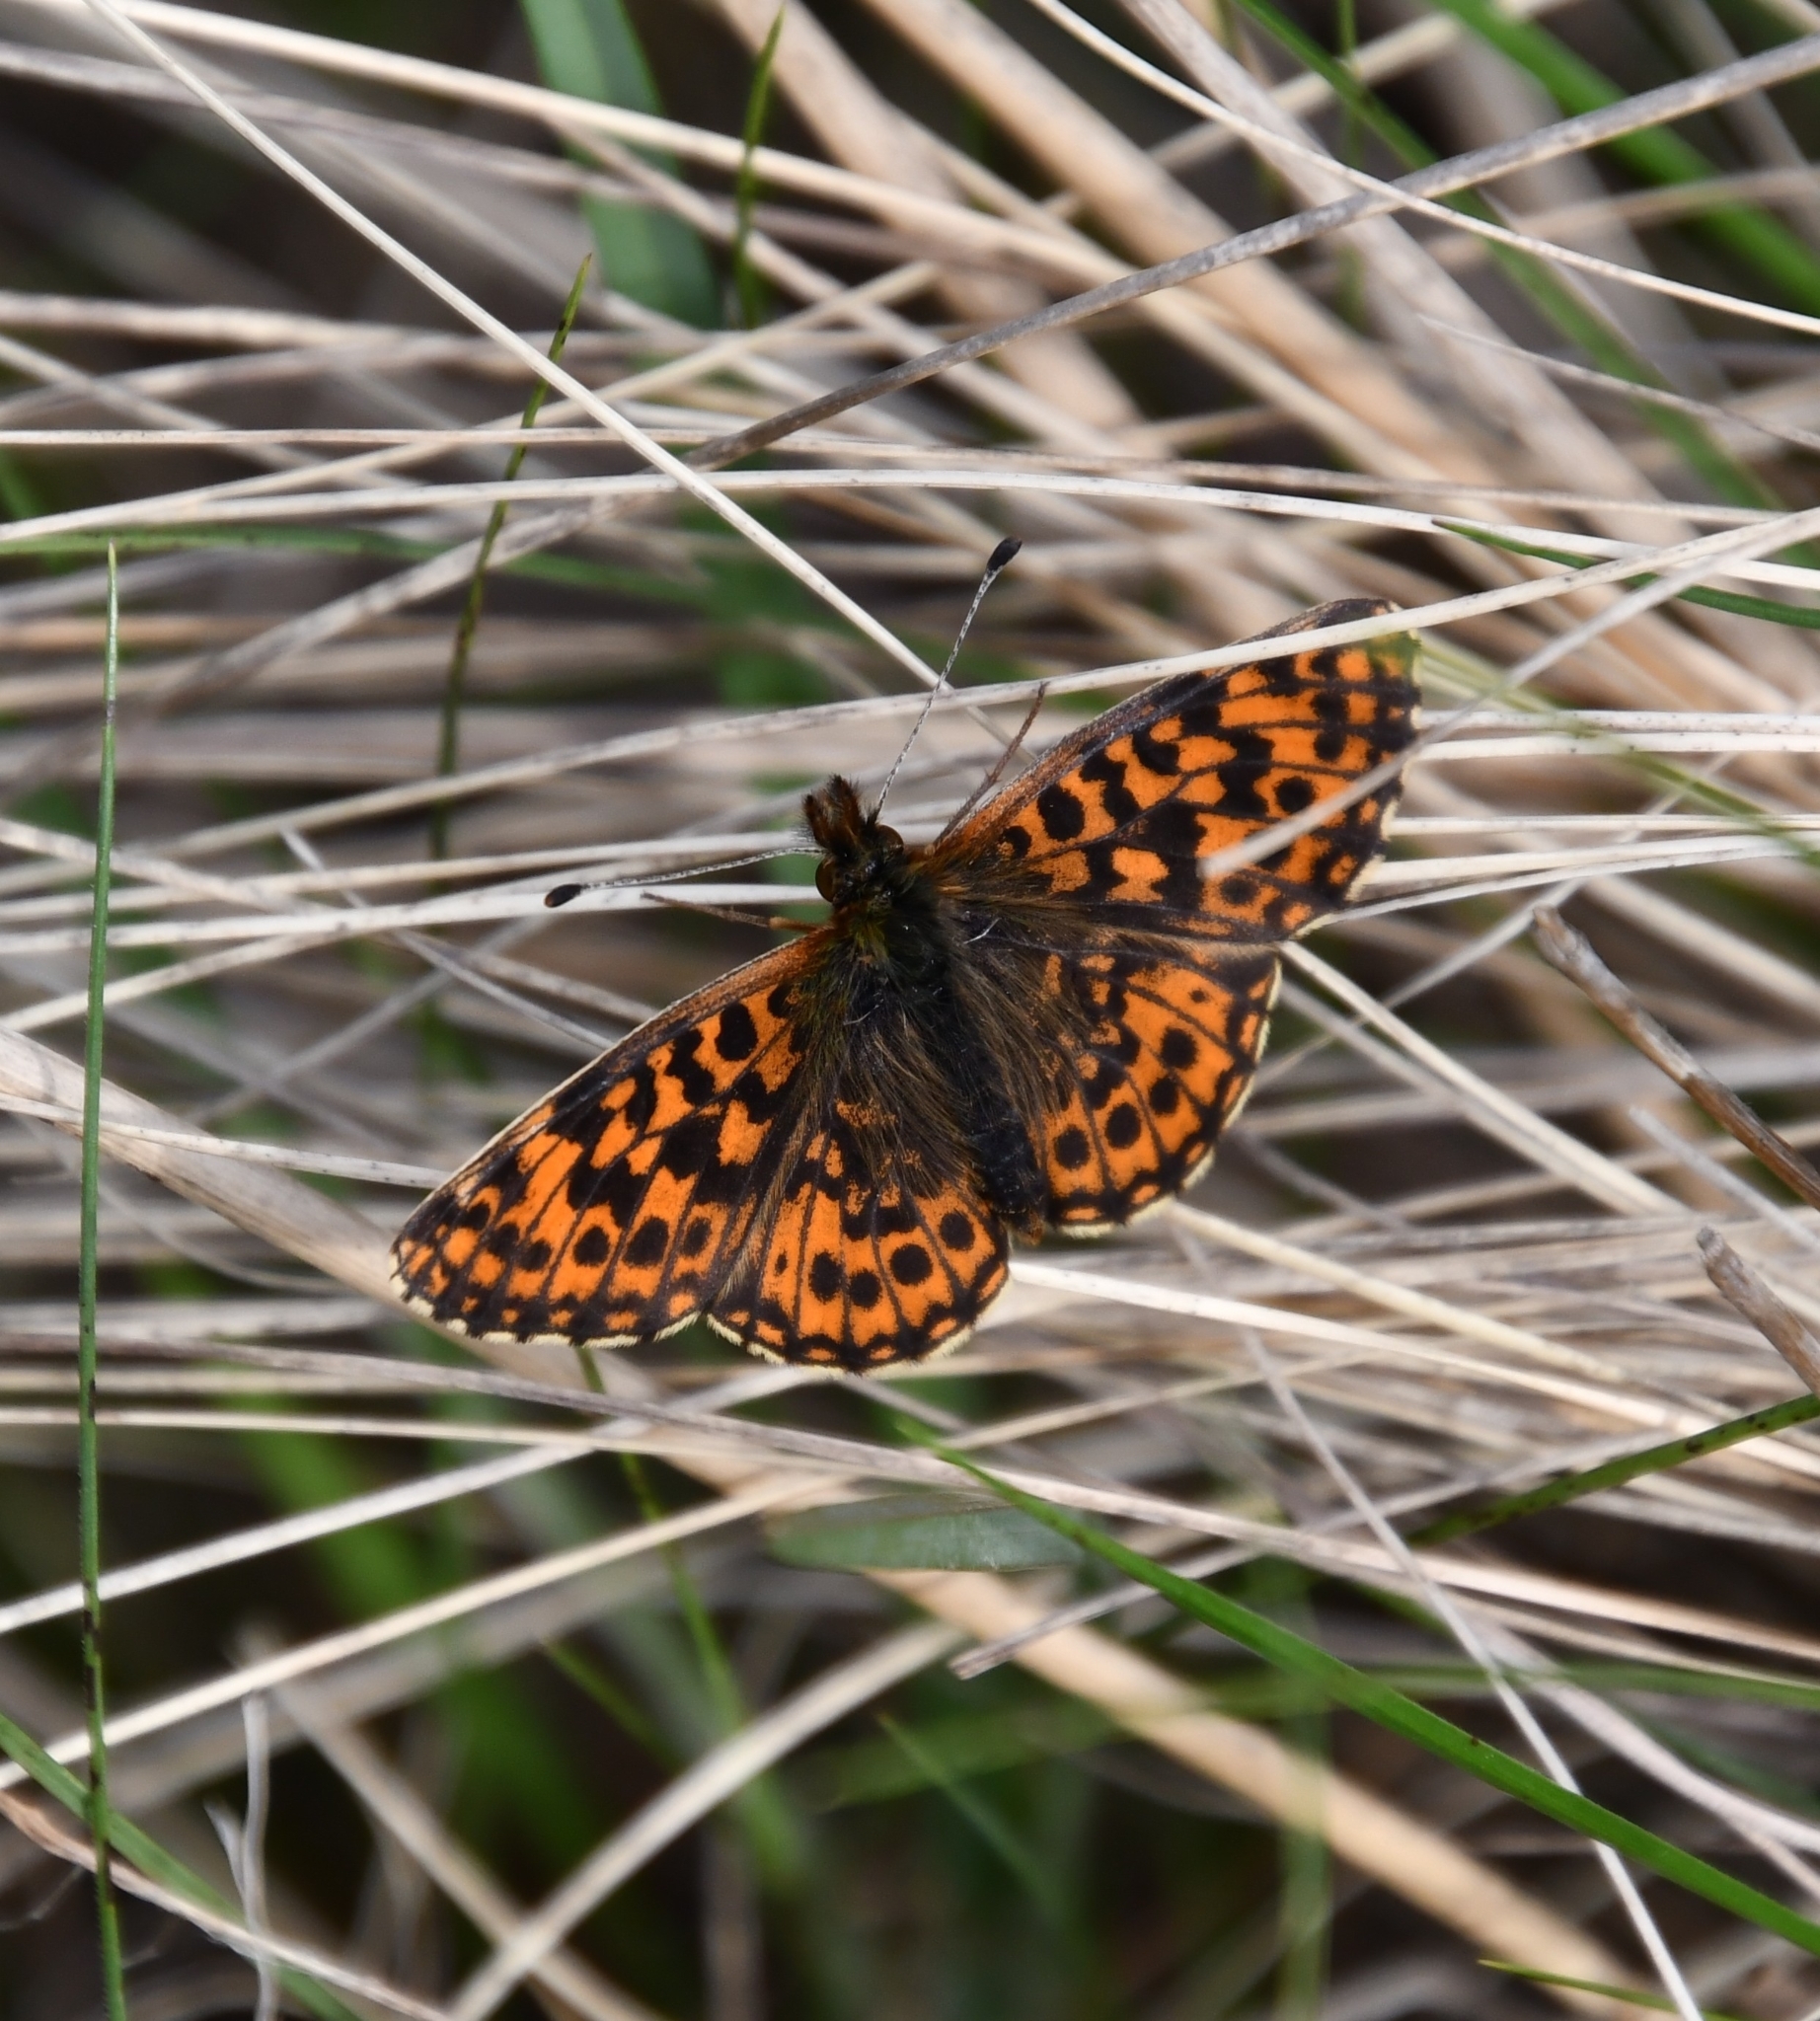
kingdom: Animalia
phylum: Arthropoda
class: Insecta
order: Lepidoptera
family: Nymphalidae
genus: Boloria
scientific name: Boloria dia
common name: Weaver's fritillary
